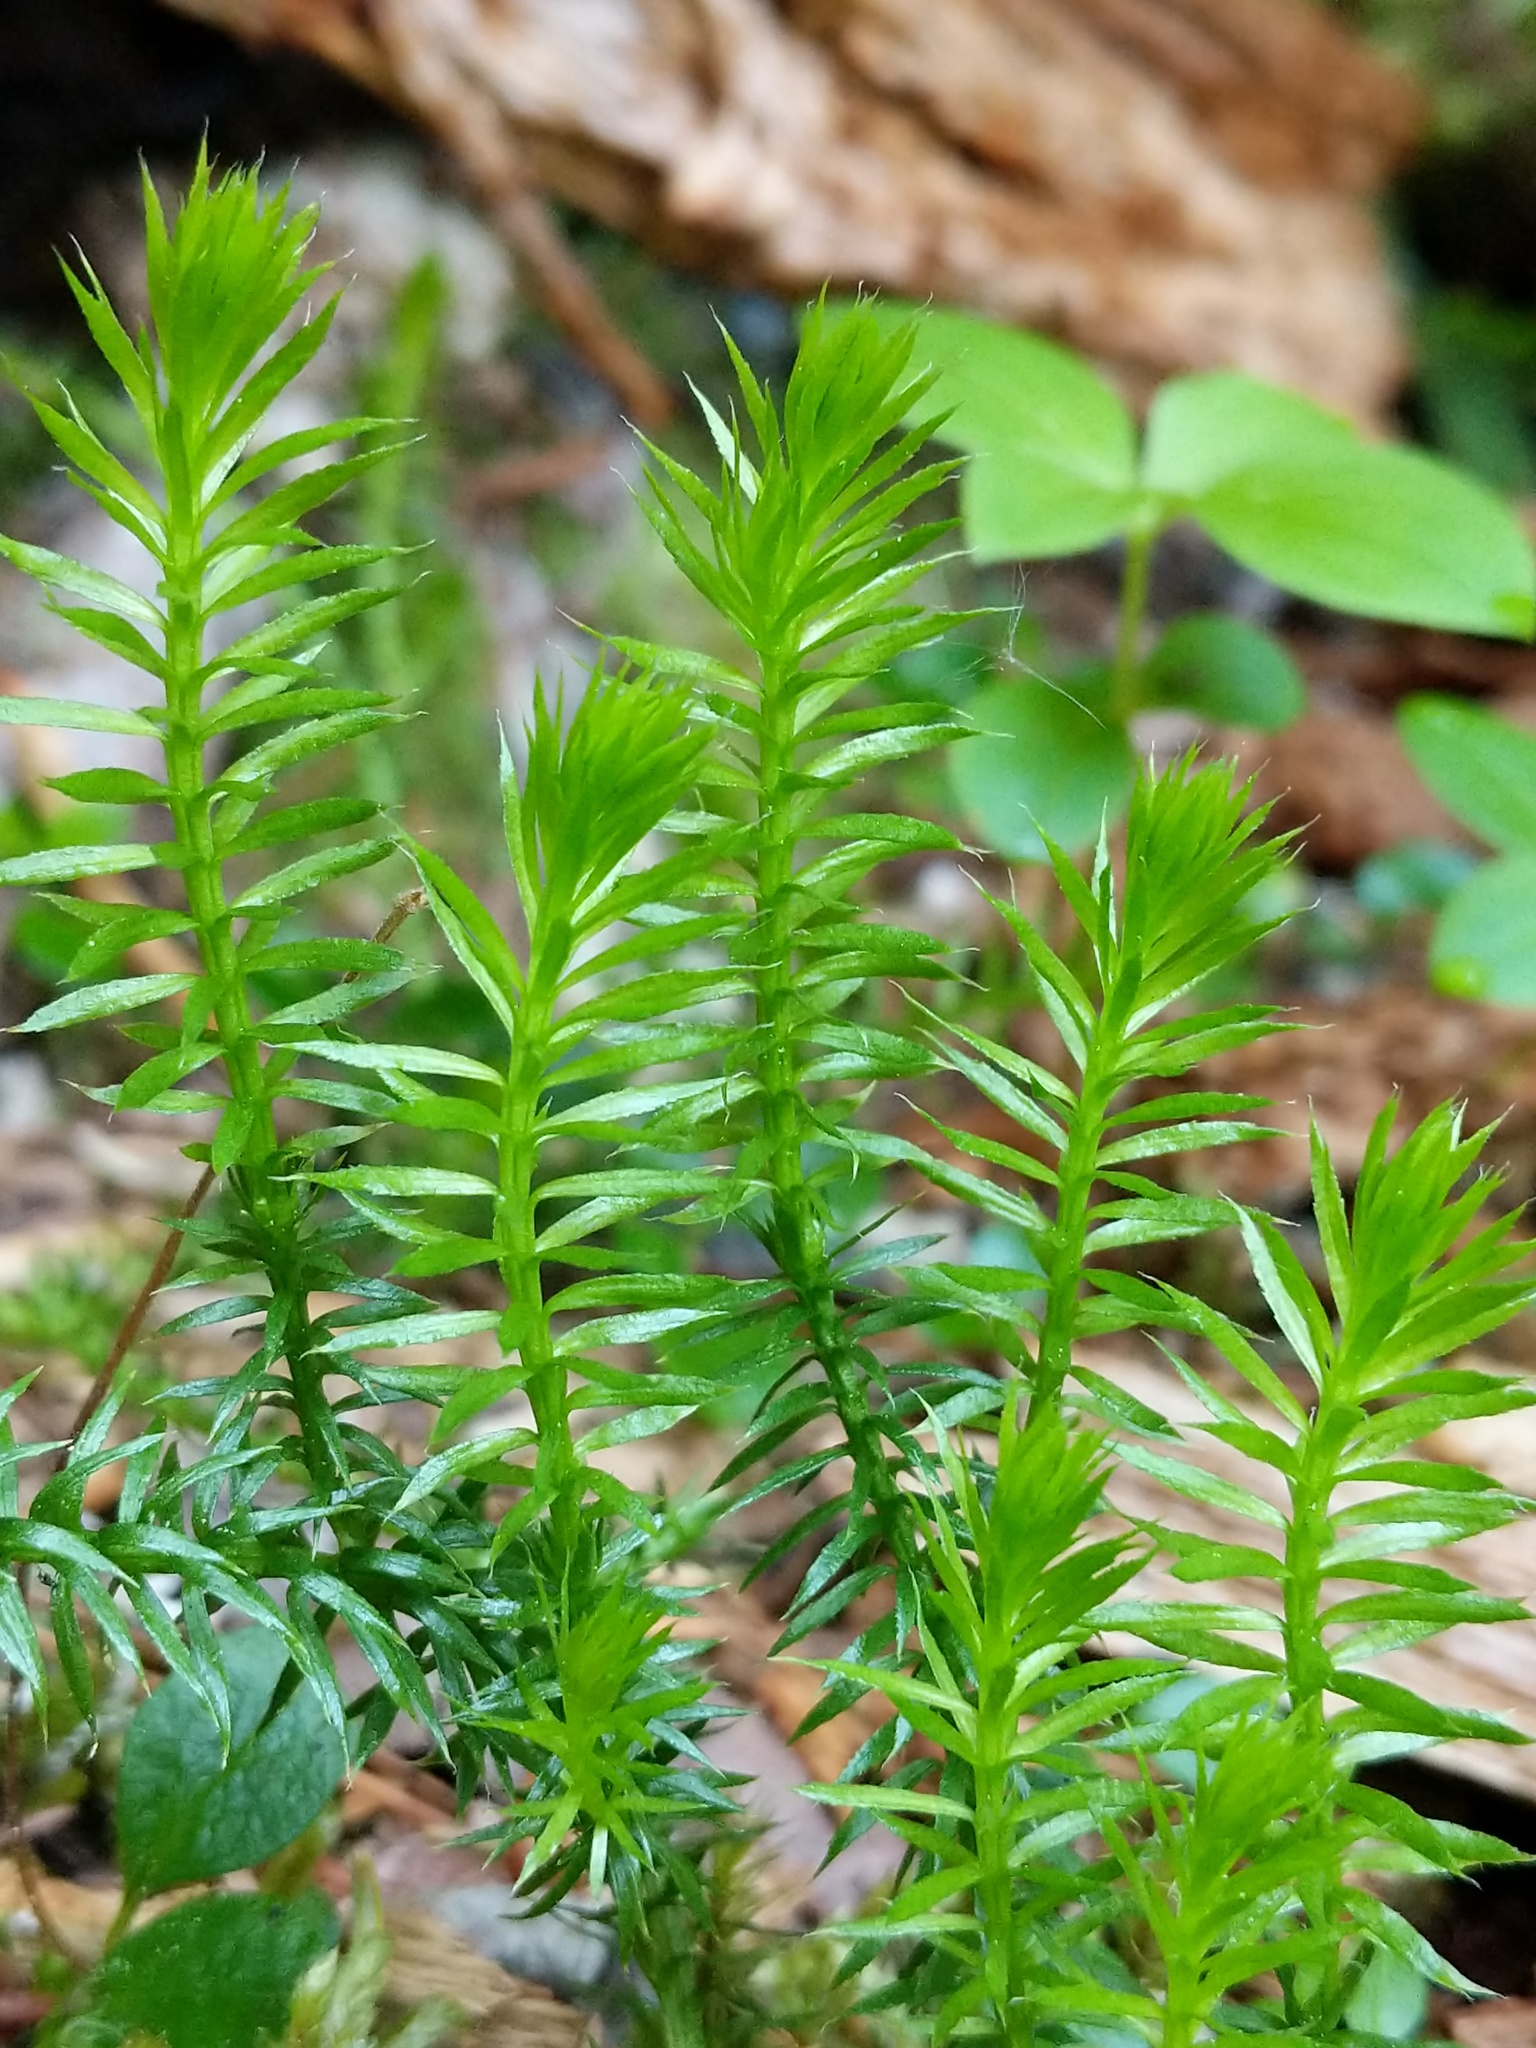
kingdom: Plantae
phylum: Tracheophyta
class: Lycopodiopsida
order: Lycopodiales
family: Lycopodiaceae
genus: Spinulum
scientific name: Spinulum annotinum
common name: Interrupted club-moss
